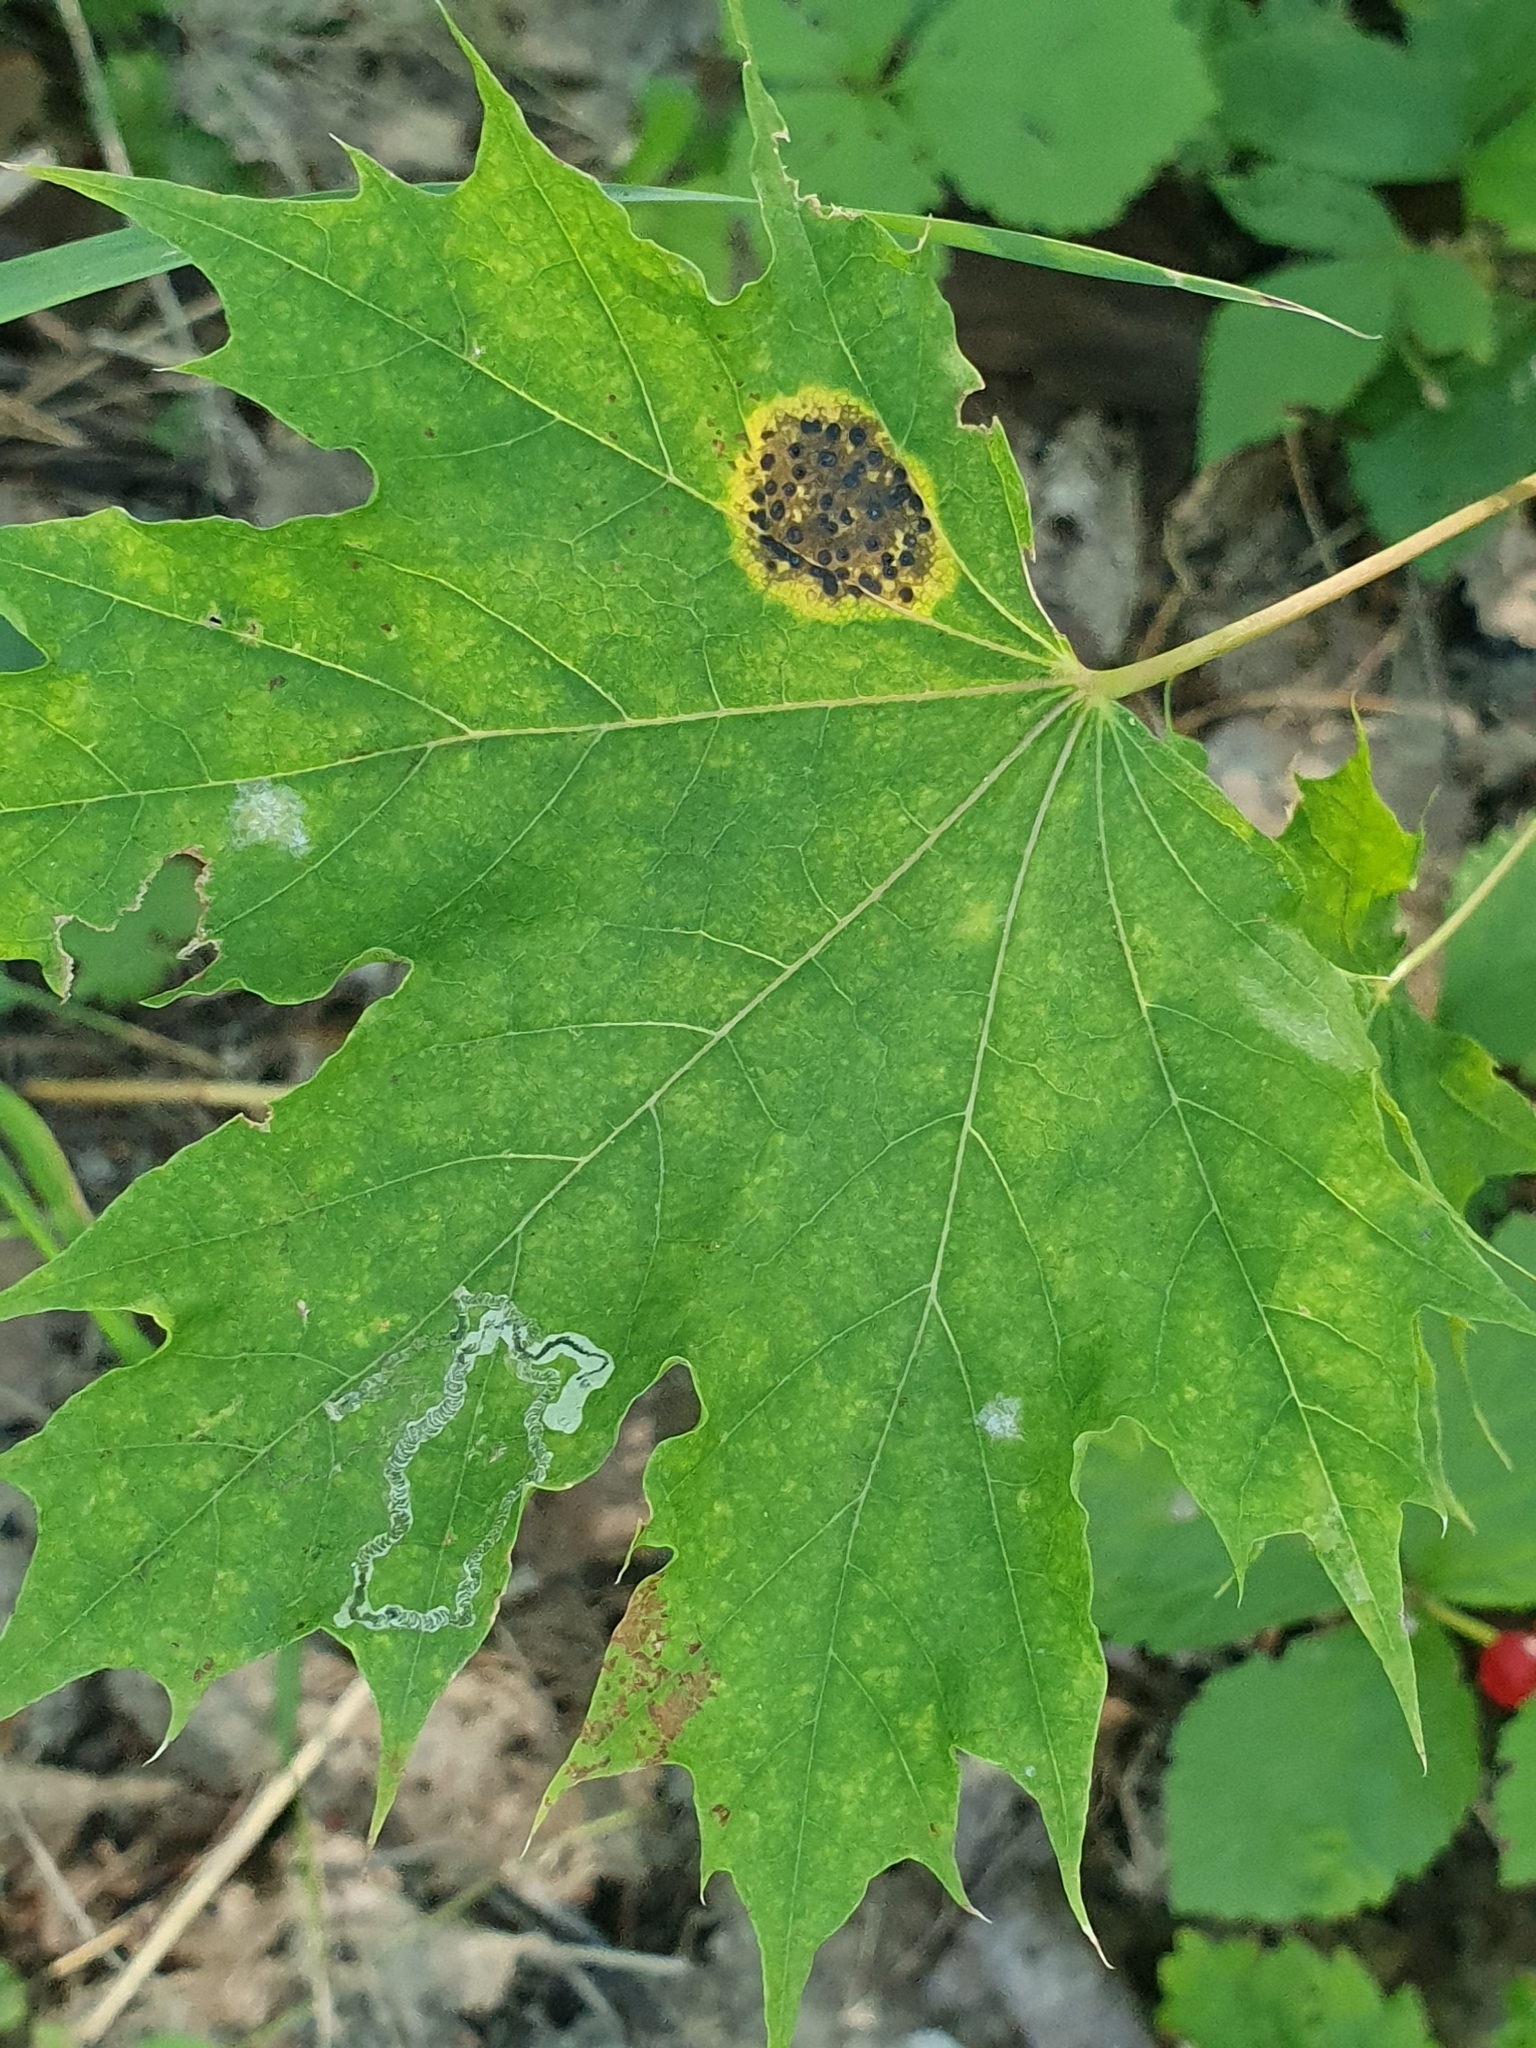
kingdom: Fungi
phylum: Ascomycota
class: Leotiomycetes
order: Rhytismatales
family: Rhytismataceae
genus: Rhytisma
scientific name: Rhytisma acerinum
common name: European tar spot
